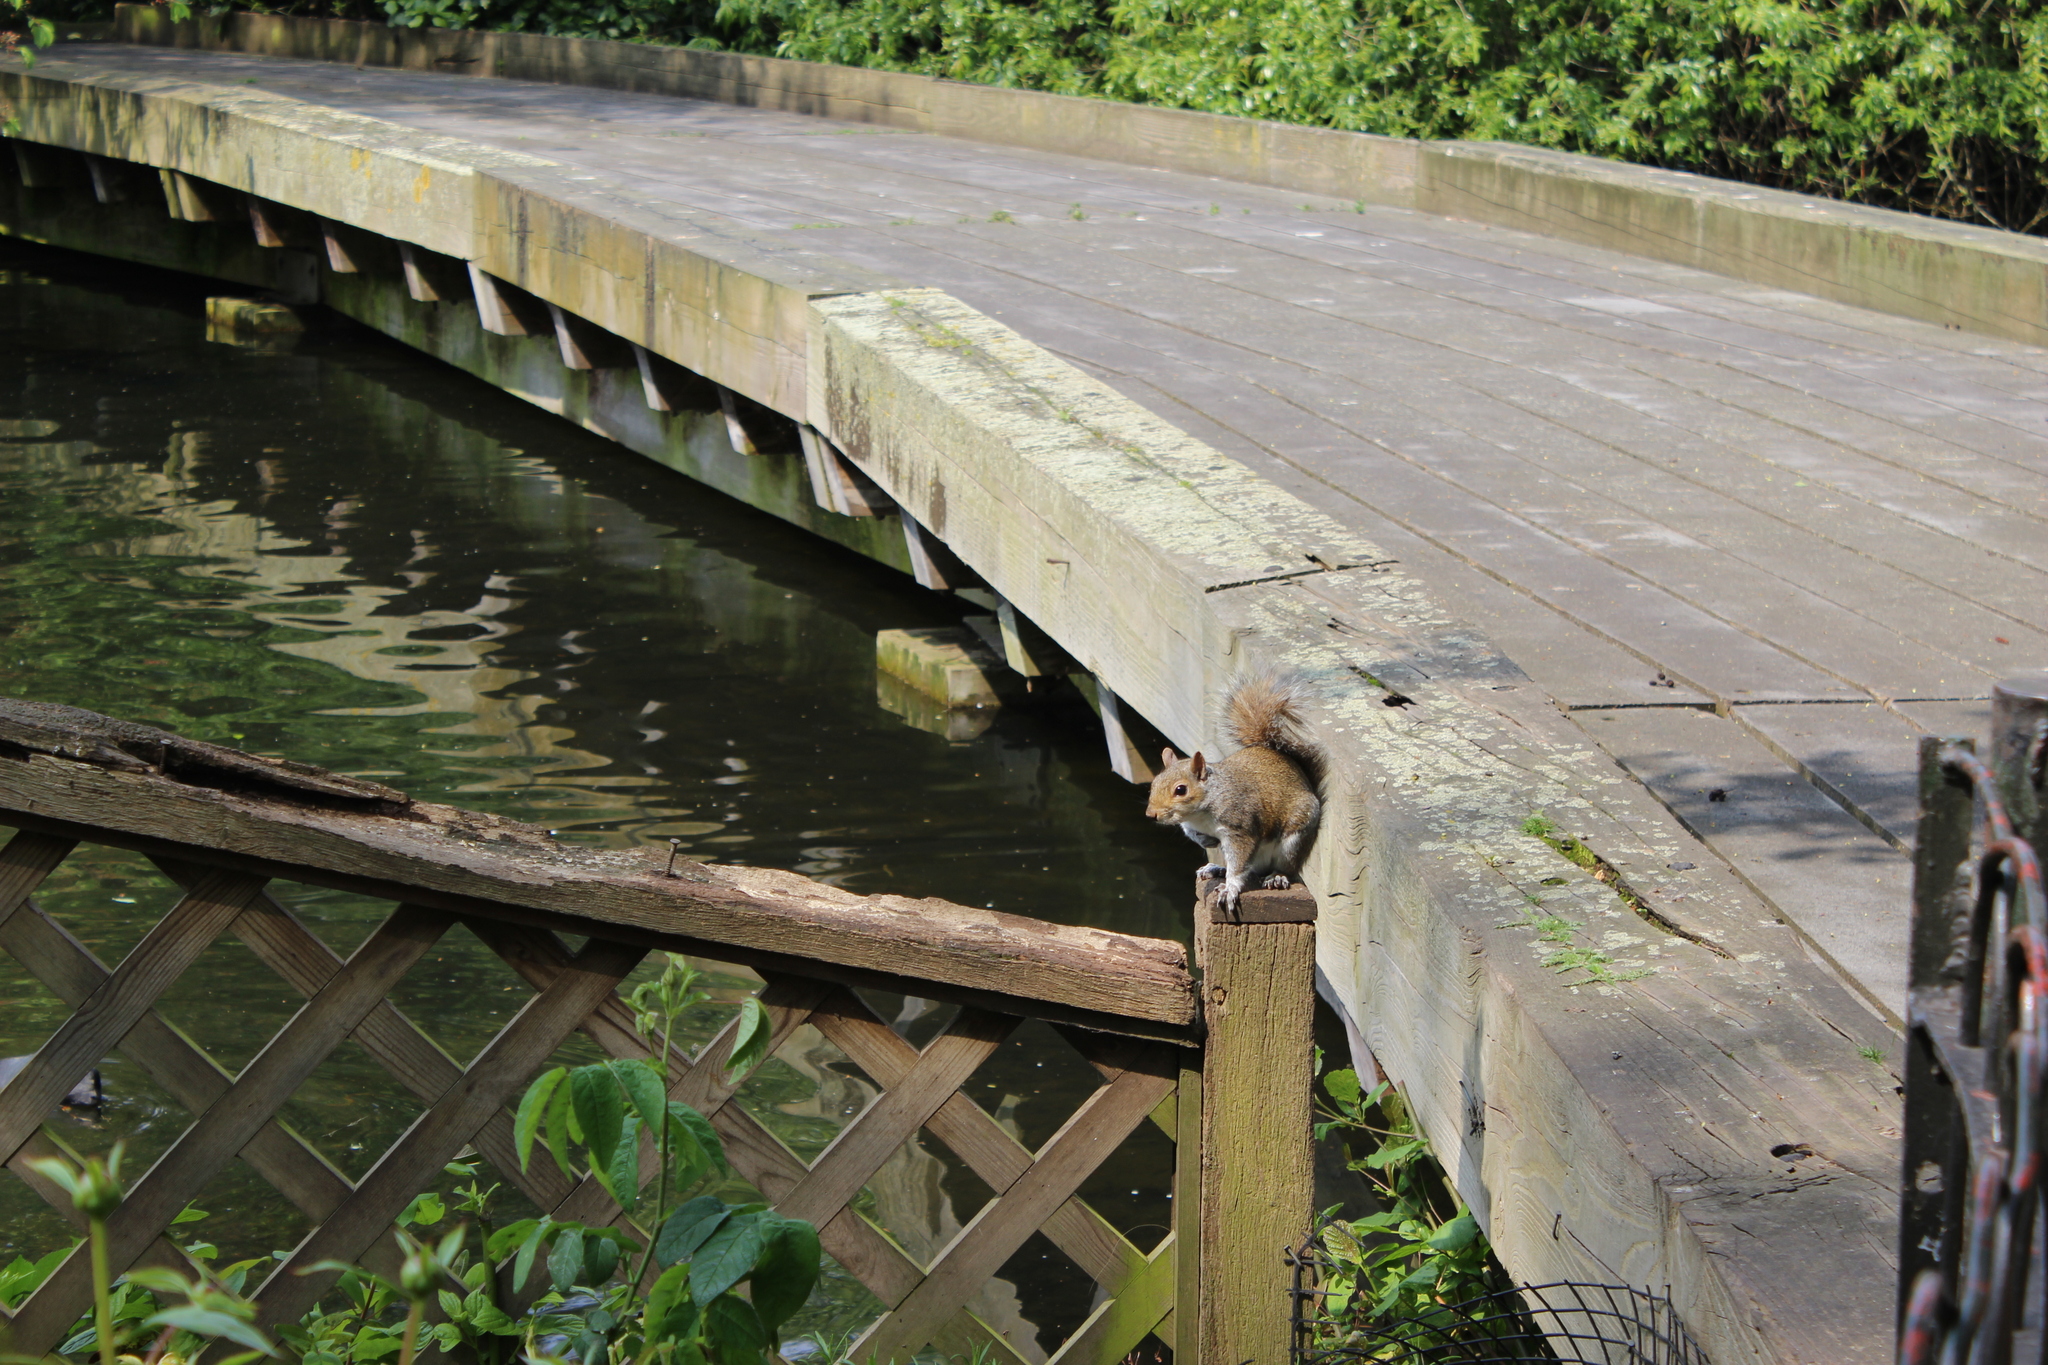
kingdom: Animalia
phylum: Chordata
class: Mammalia
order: Rodentia
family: Sciuridae
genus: Sciurus
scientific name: Sciurus carolinensis
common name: Eastern gray squirrel
